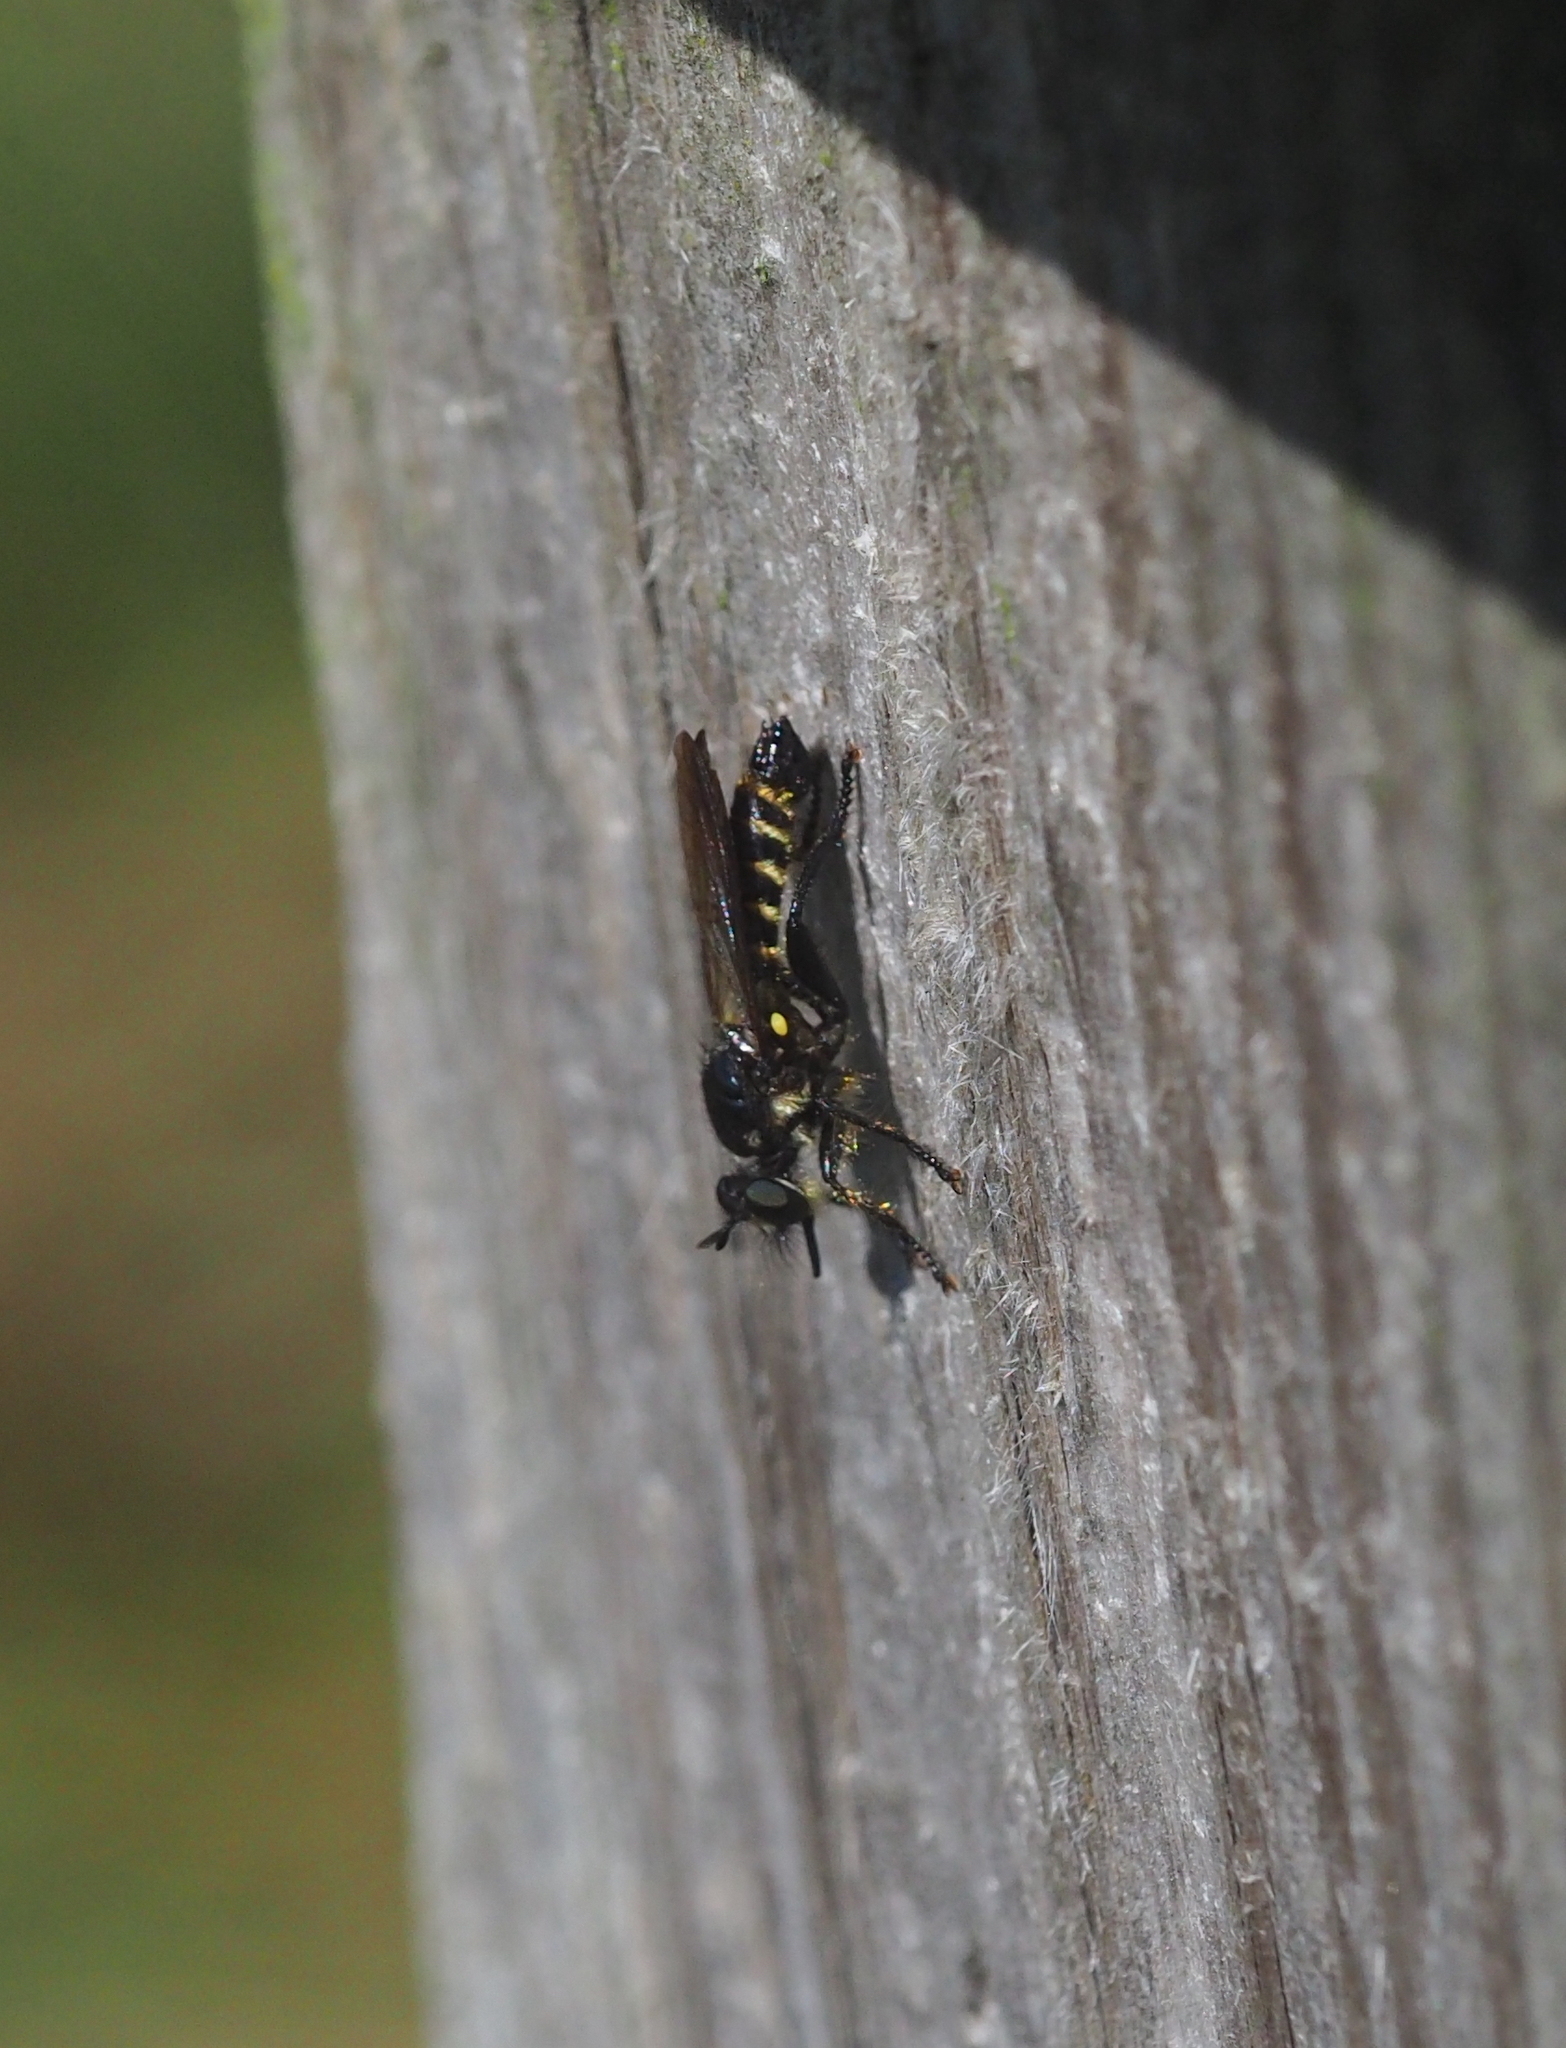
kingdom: Animalia
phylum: Arthropoda
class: Insecta
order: Diptera
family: Asilidae
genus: Lamyra
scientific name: Lamyra fimbriata
